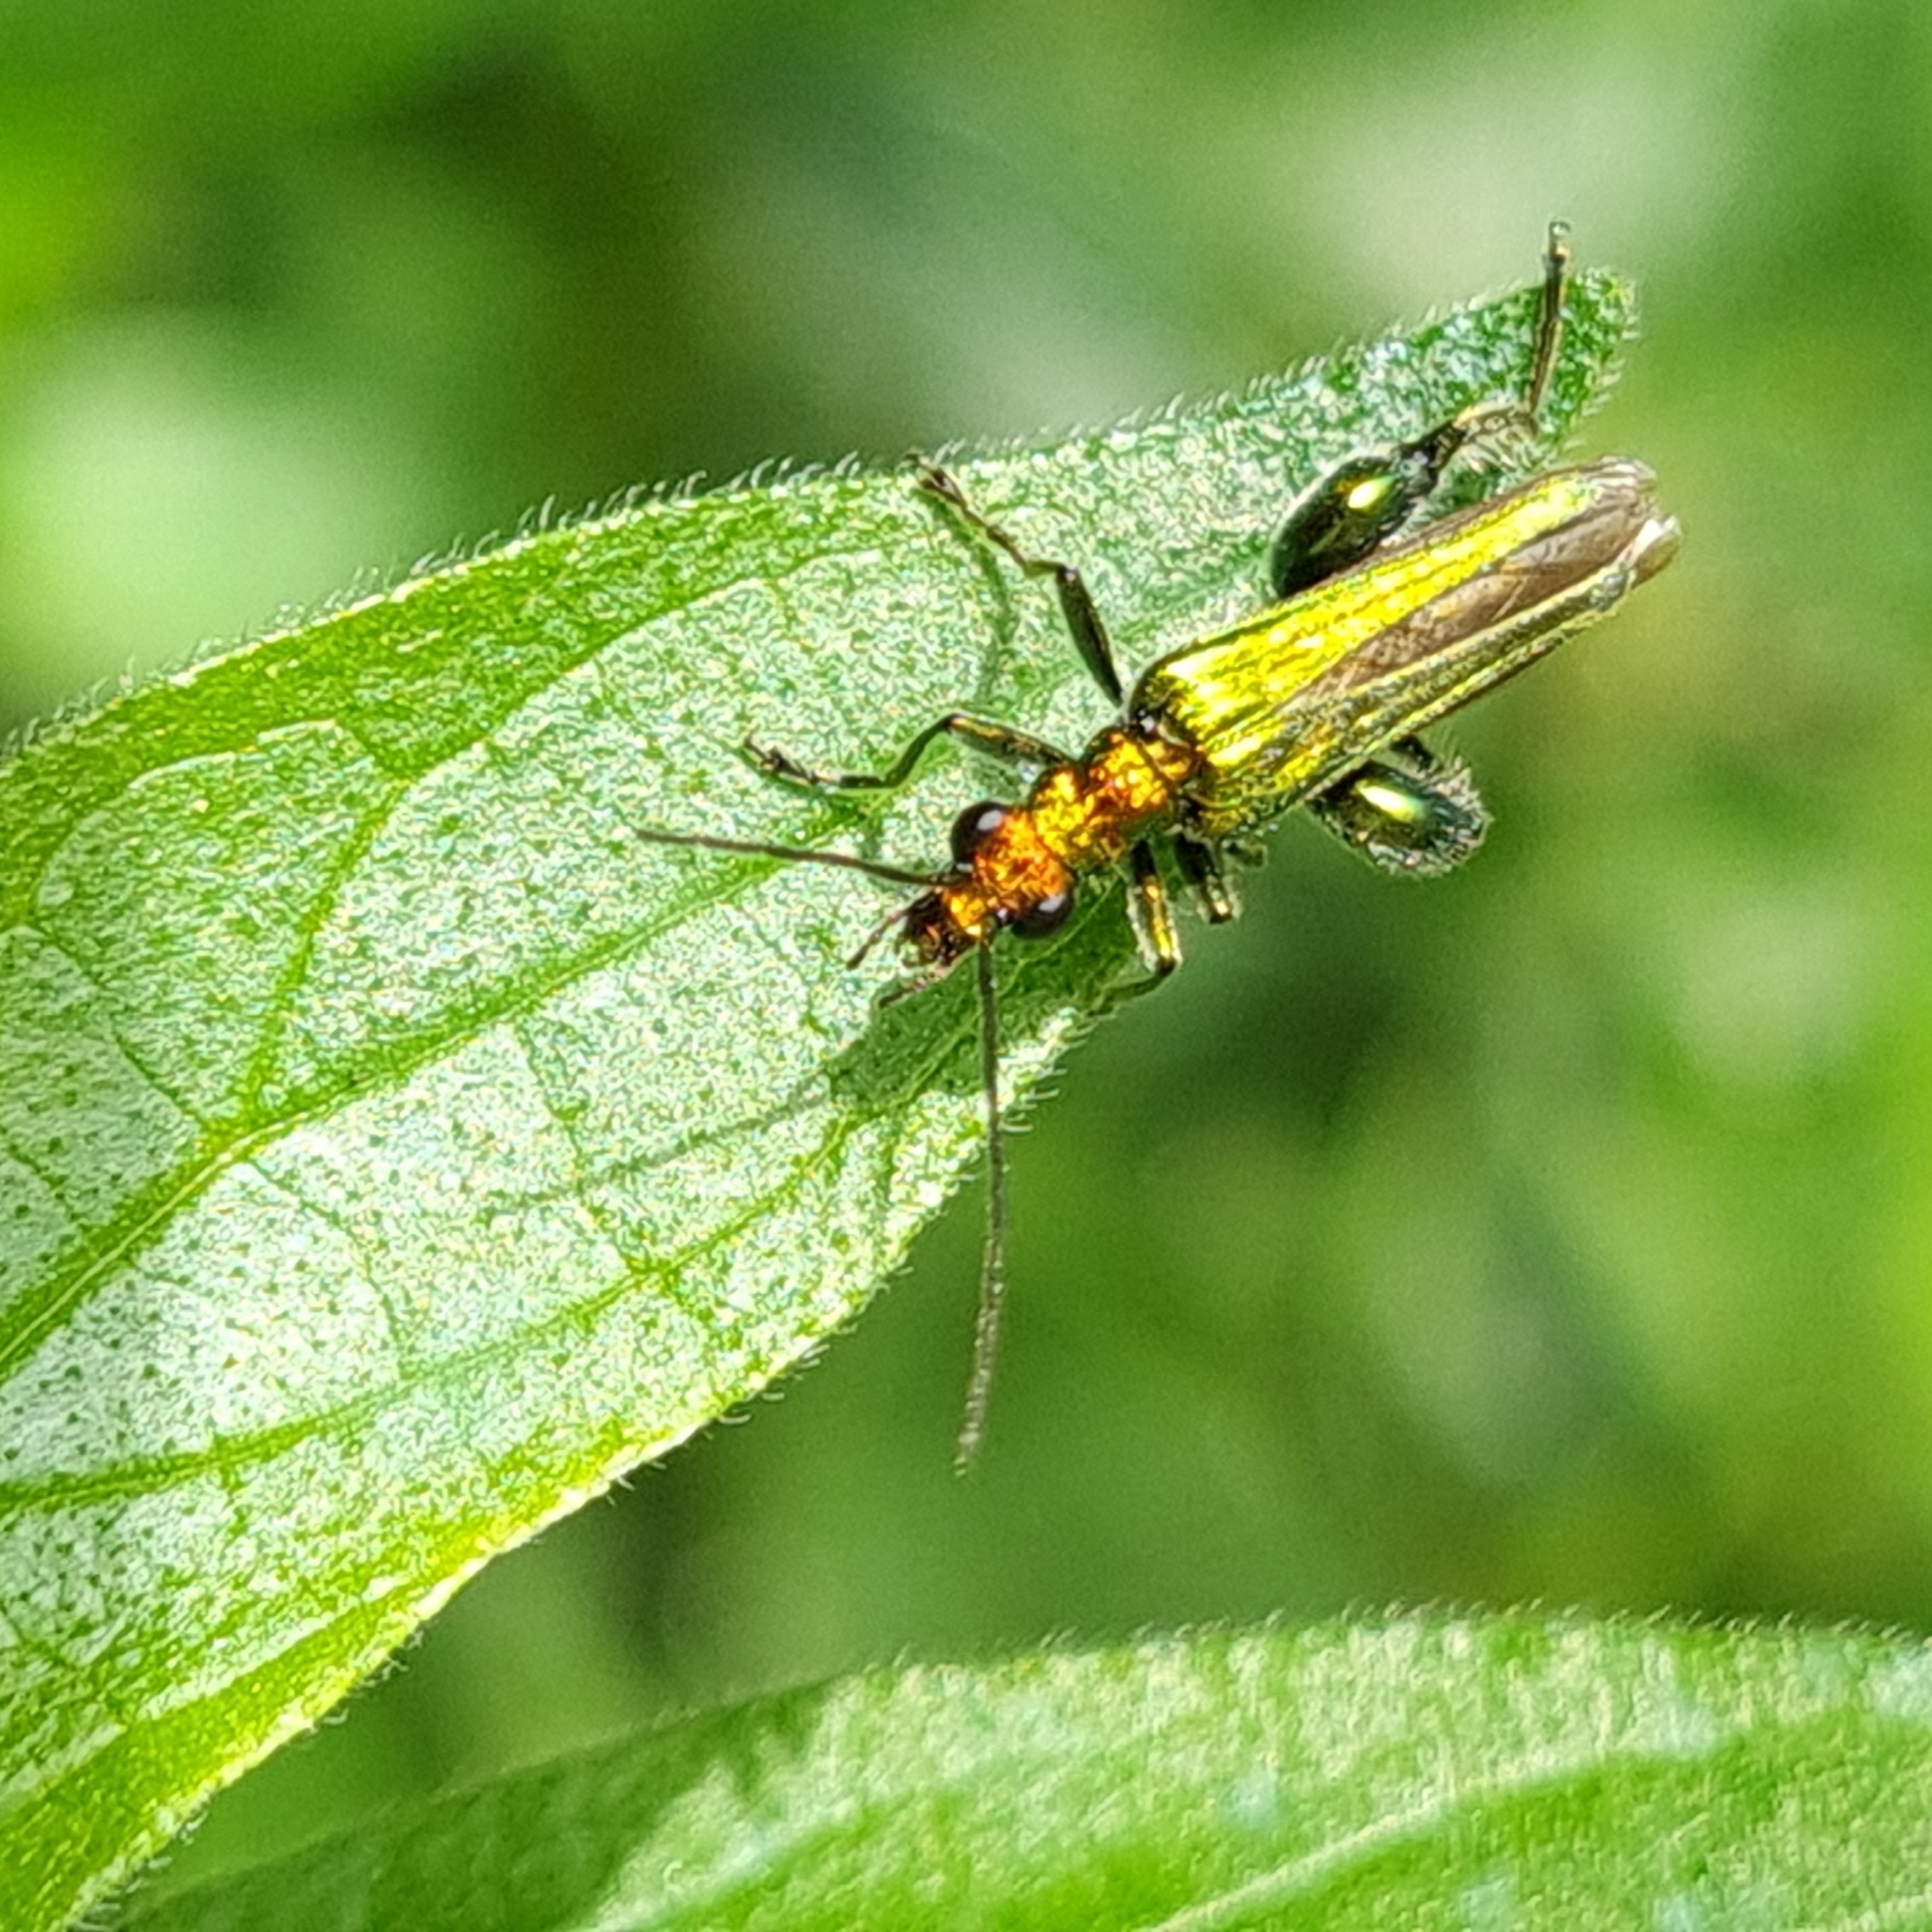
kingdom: Animalia
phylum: Arthropoda
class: Insecta
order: Coleoptera
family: Oedemeridae
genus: Oedemera
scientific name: Oedemera nobilis
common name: Swollen-thighed beetle
